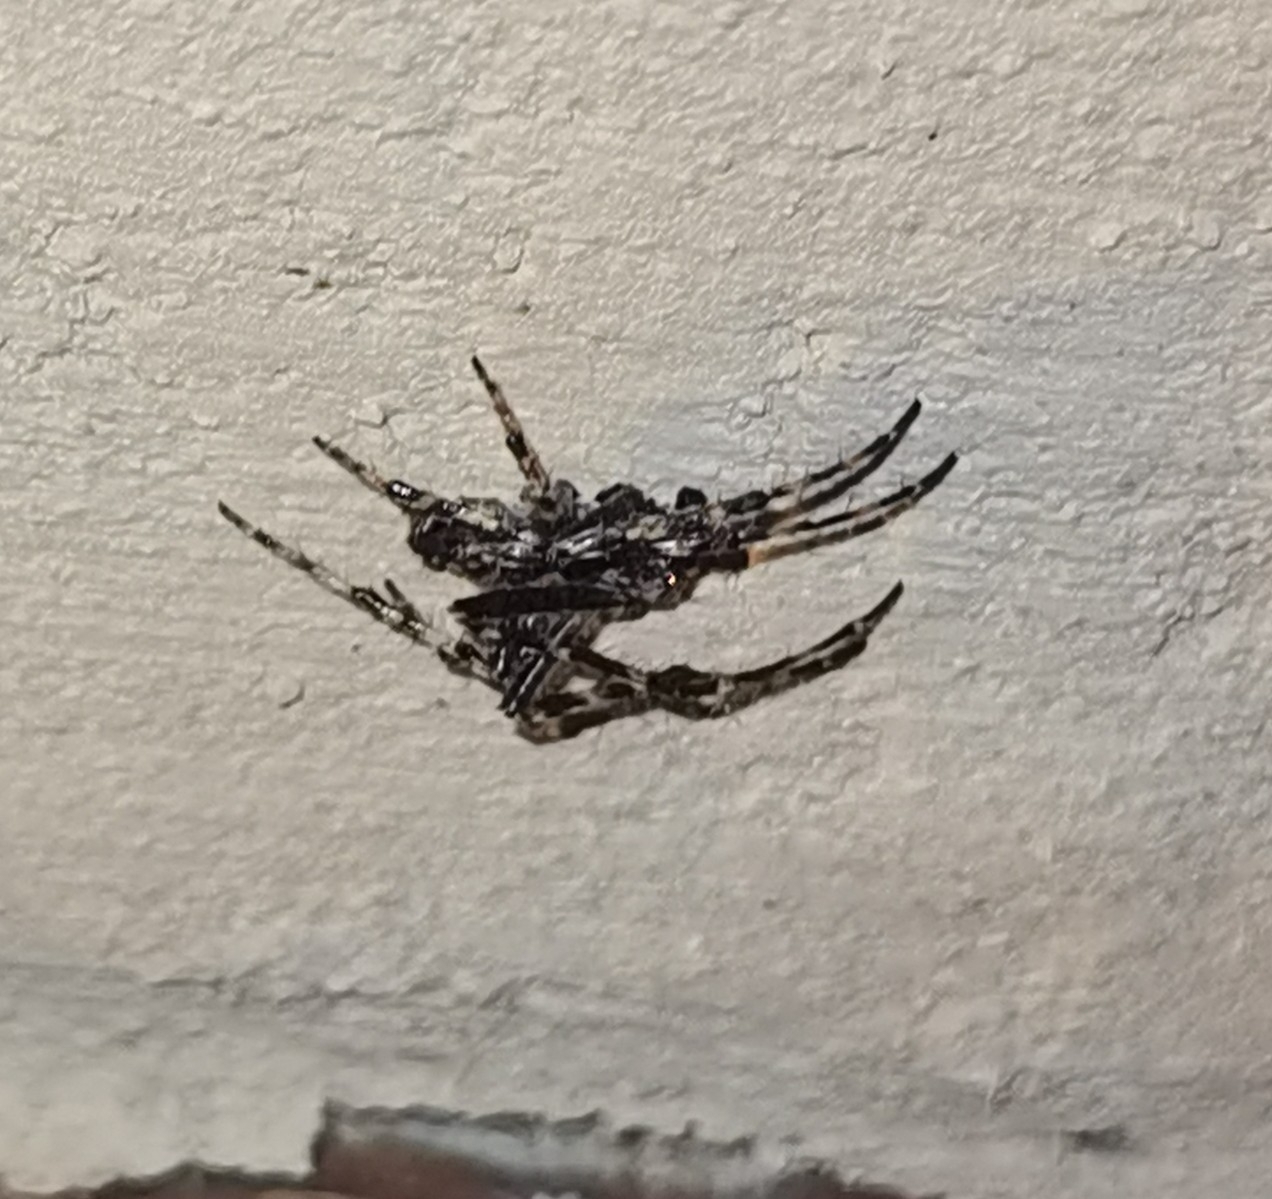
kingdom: Animalia
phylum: Arthropoda
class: Arachnida
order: Araneae
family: Araneidae
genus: Nuctenea
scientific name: Nuctenea umbratica
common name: Toad spider
